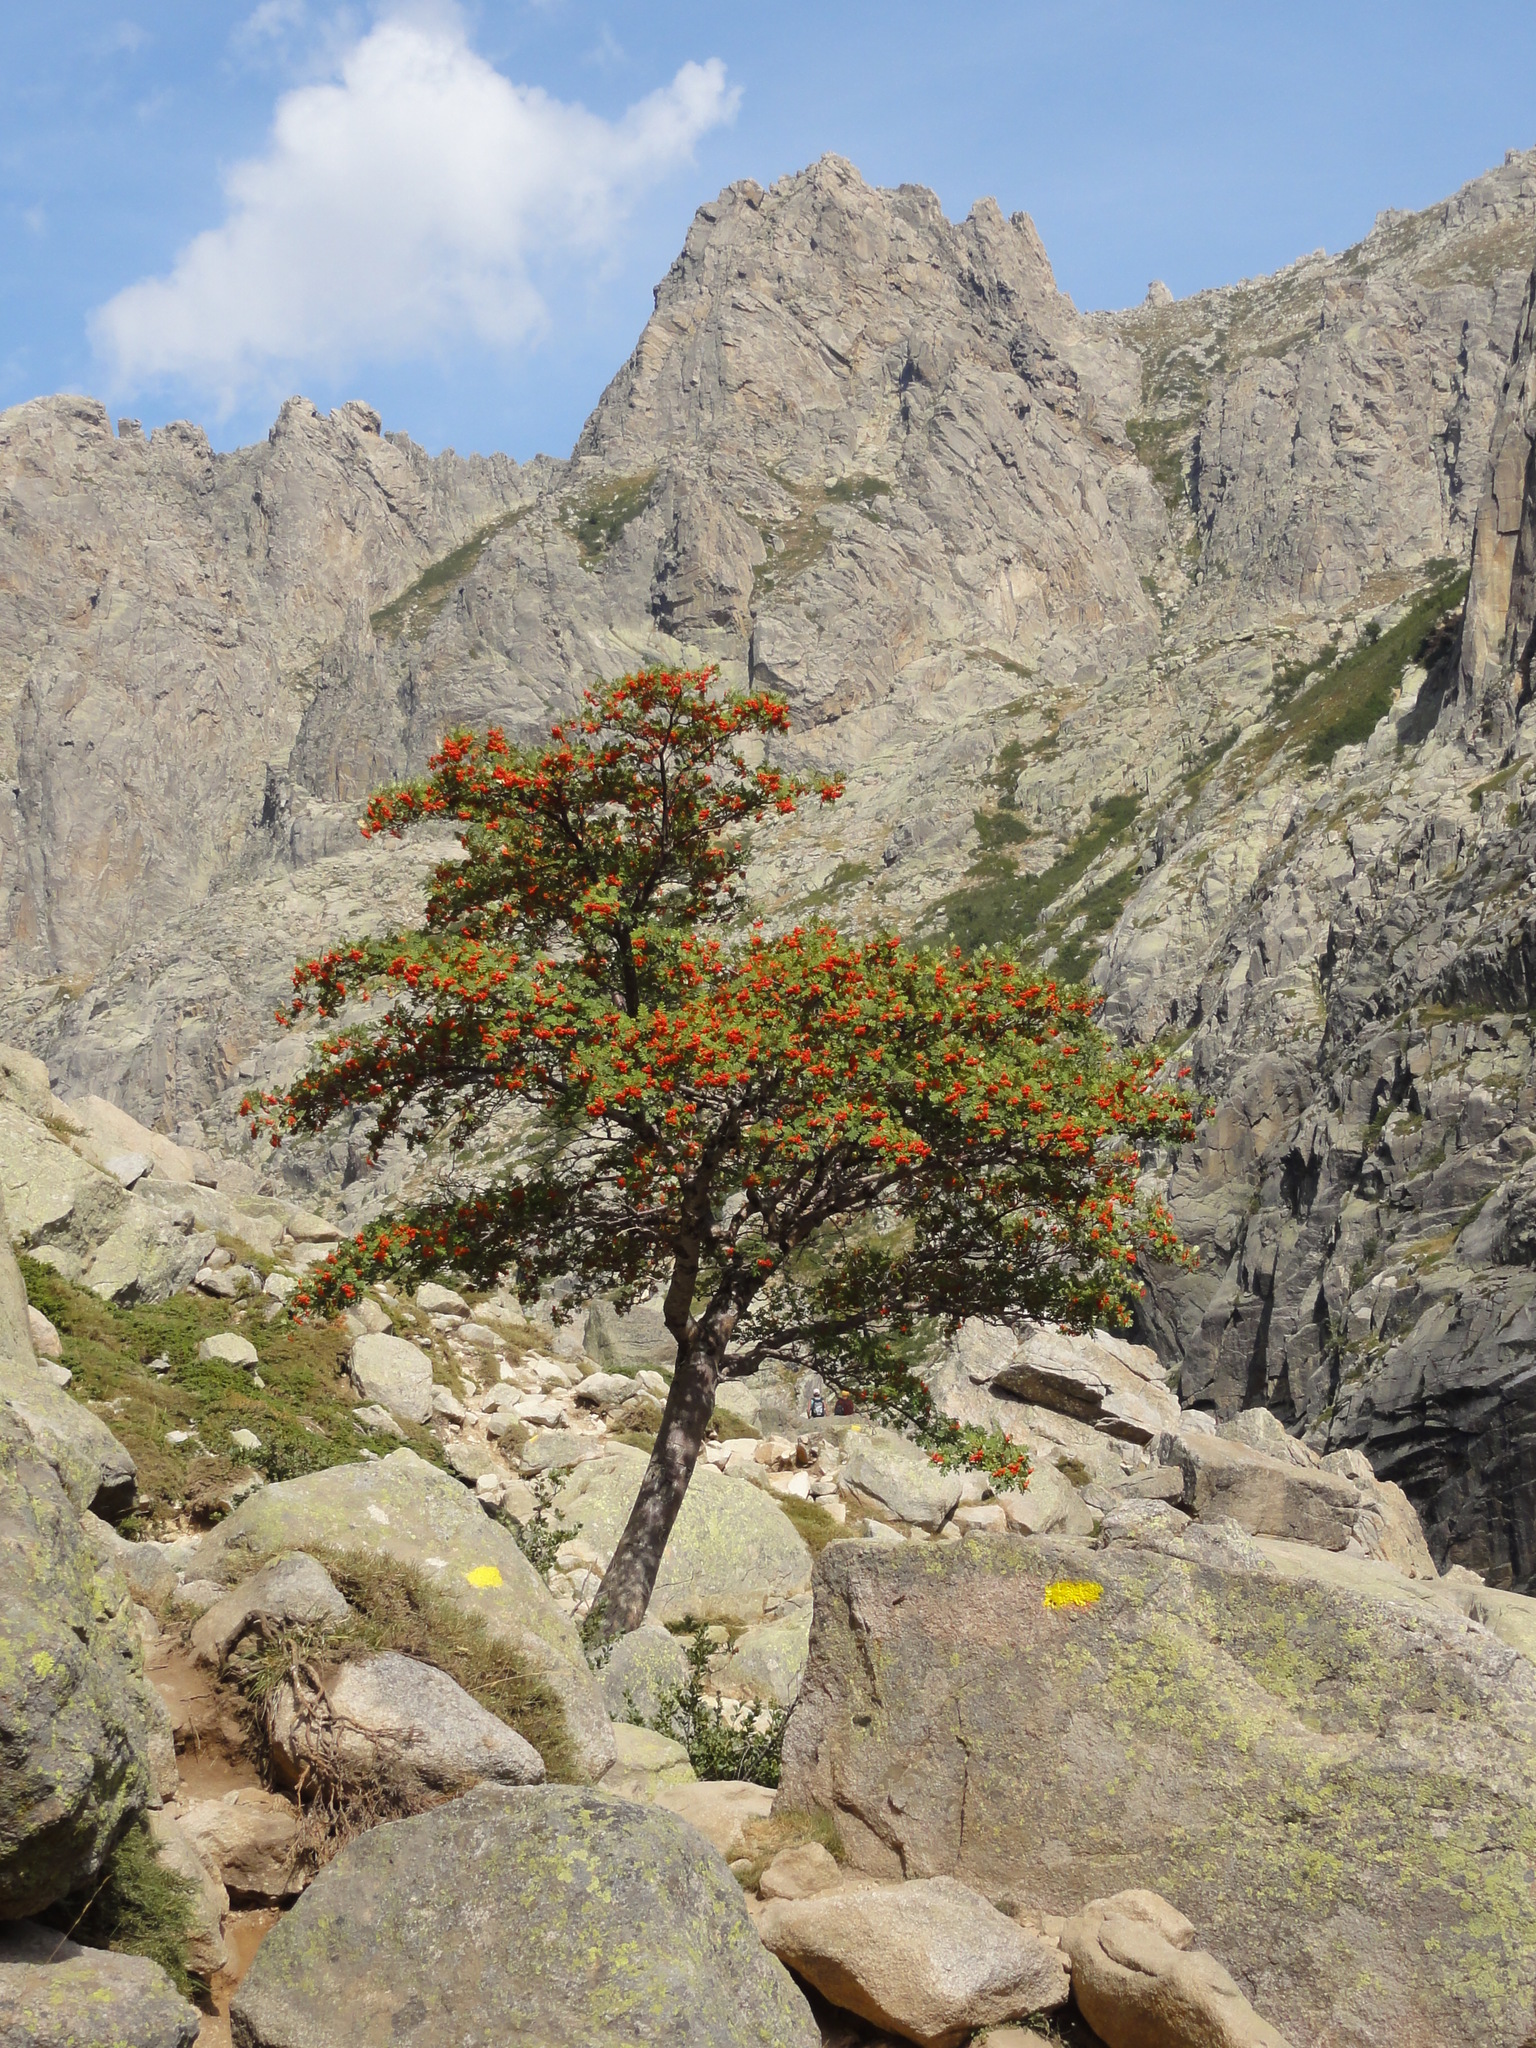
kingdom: Plantae
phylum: Tracheophyta
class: Magnoliopsida
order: Rosales
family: Rosaceae
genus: Sorbus
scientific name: Sorbus aucuparia
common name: Rowan
